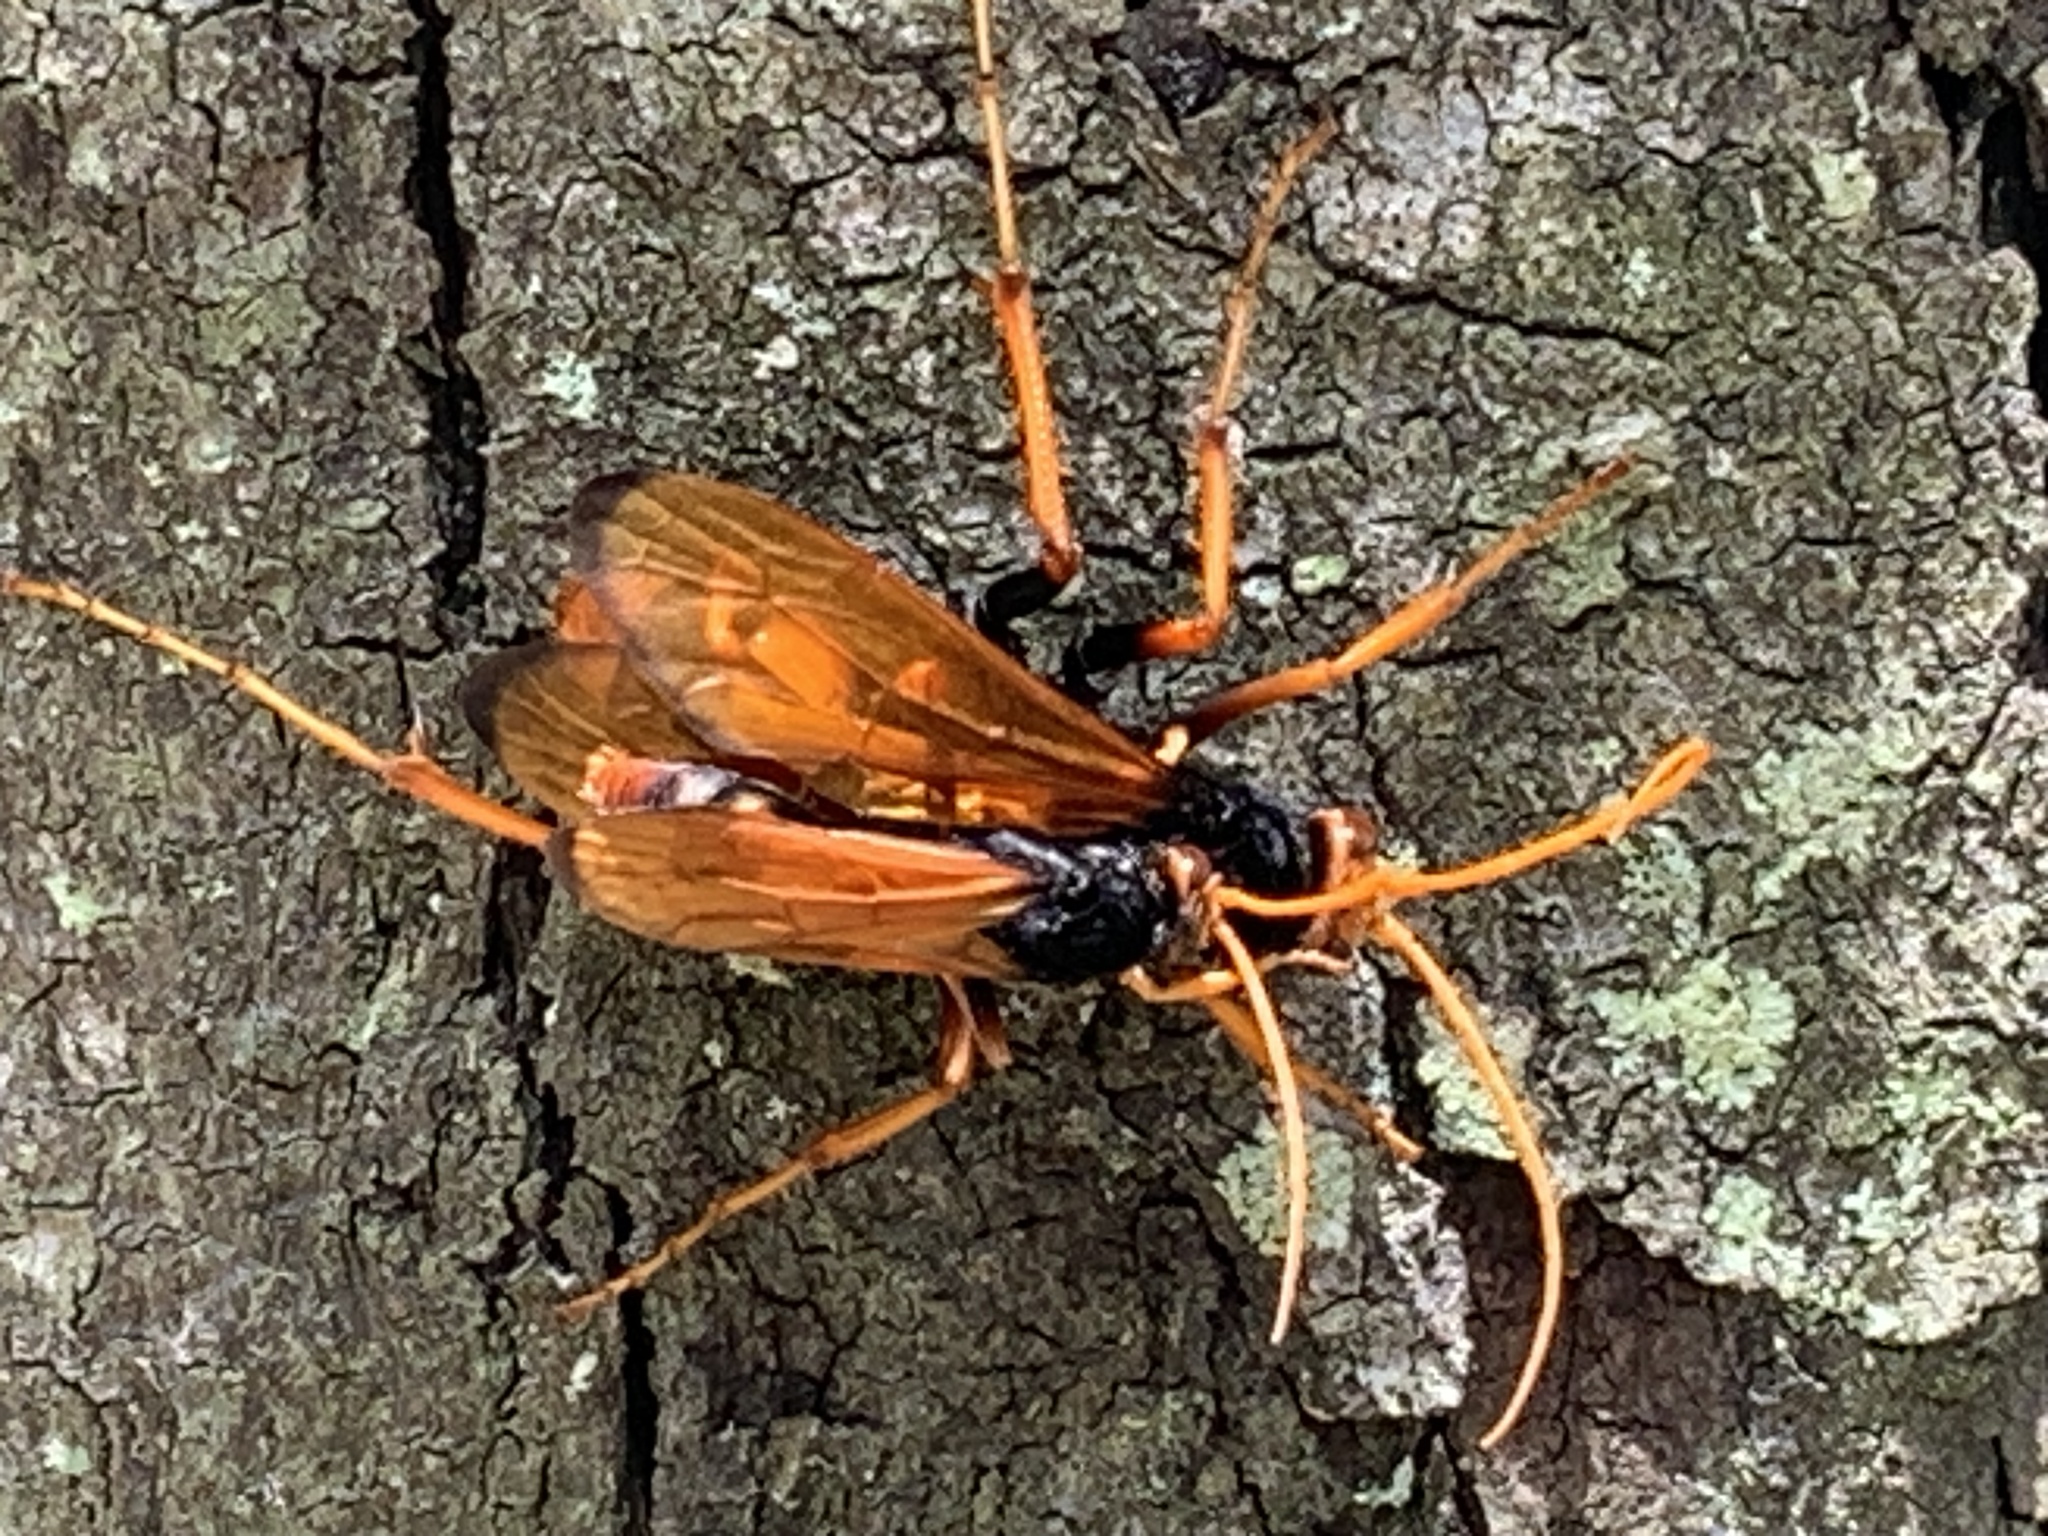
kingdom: Animalia
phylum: Arthropoda
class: Insecta
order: Hymenoptera
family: Pompilidae
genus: Cryptocheilus
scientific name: Cryptocheilus octomaculatus
